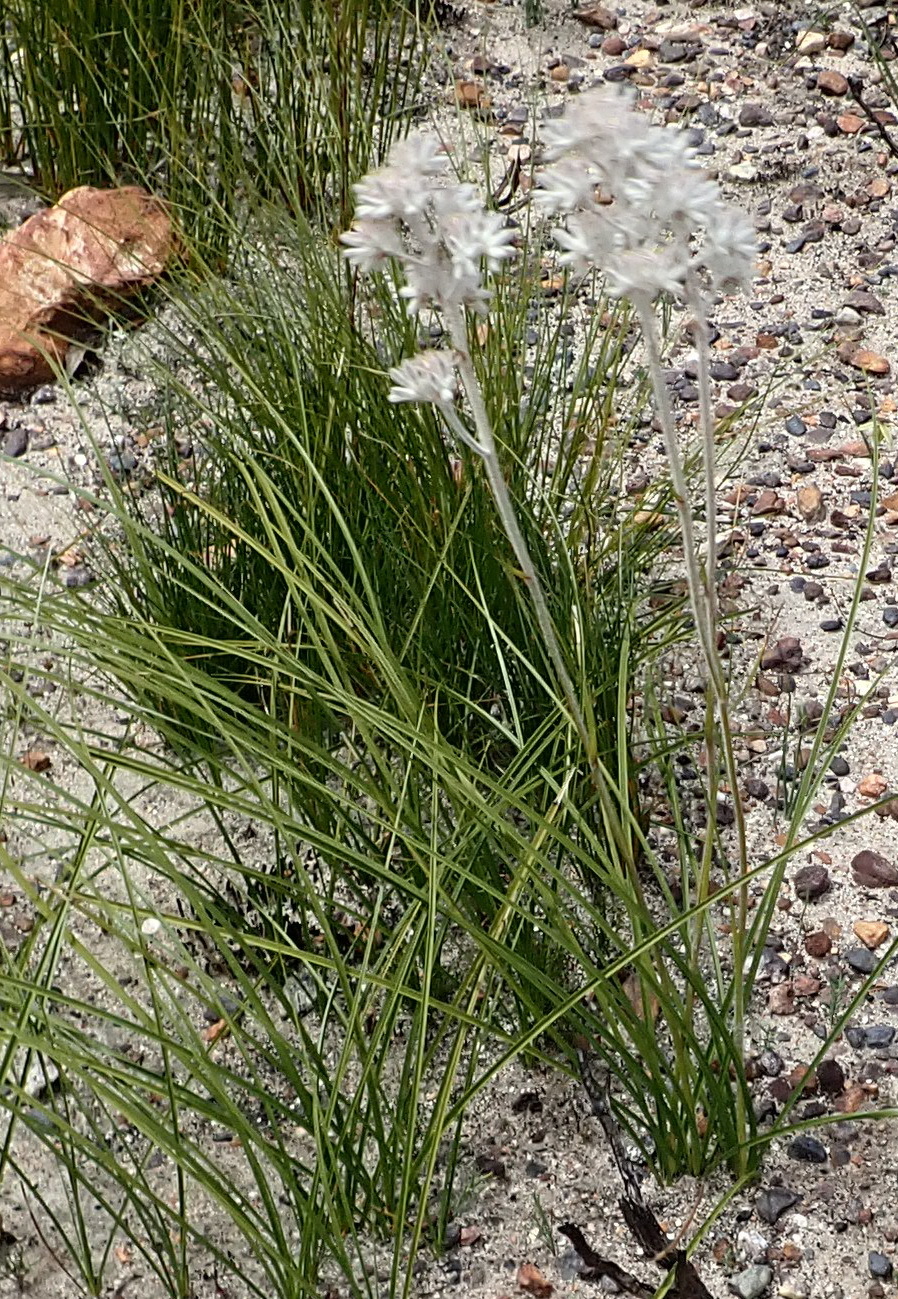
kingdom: Plantae
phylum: Tracheophyta
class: Liliopsida
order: Asparagales
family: Lanariaceae
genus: Lanaria
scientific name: Lanaria lanata
